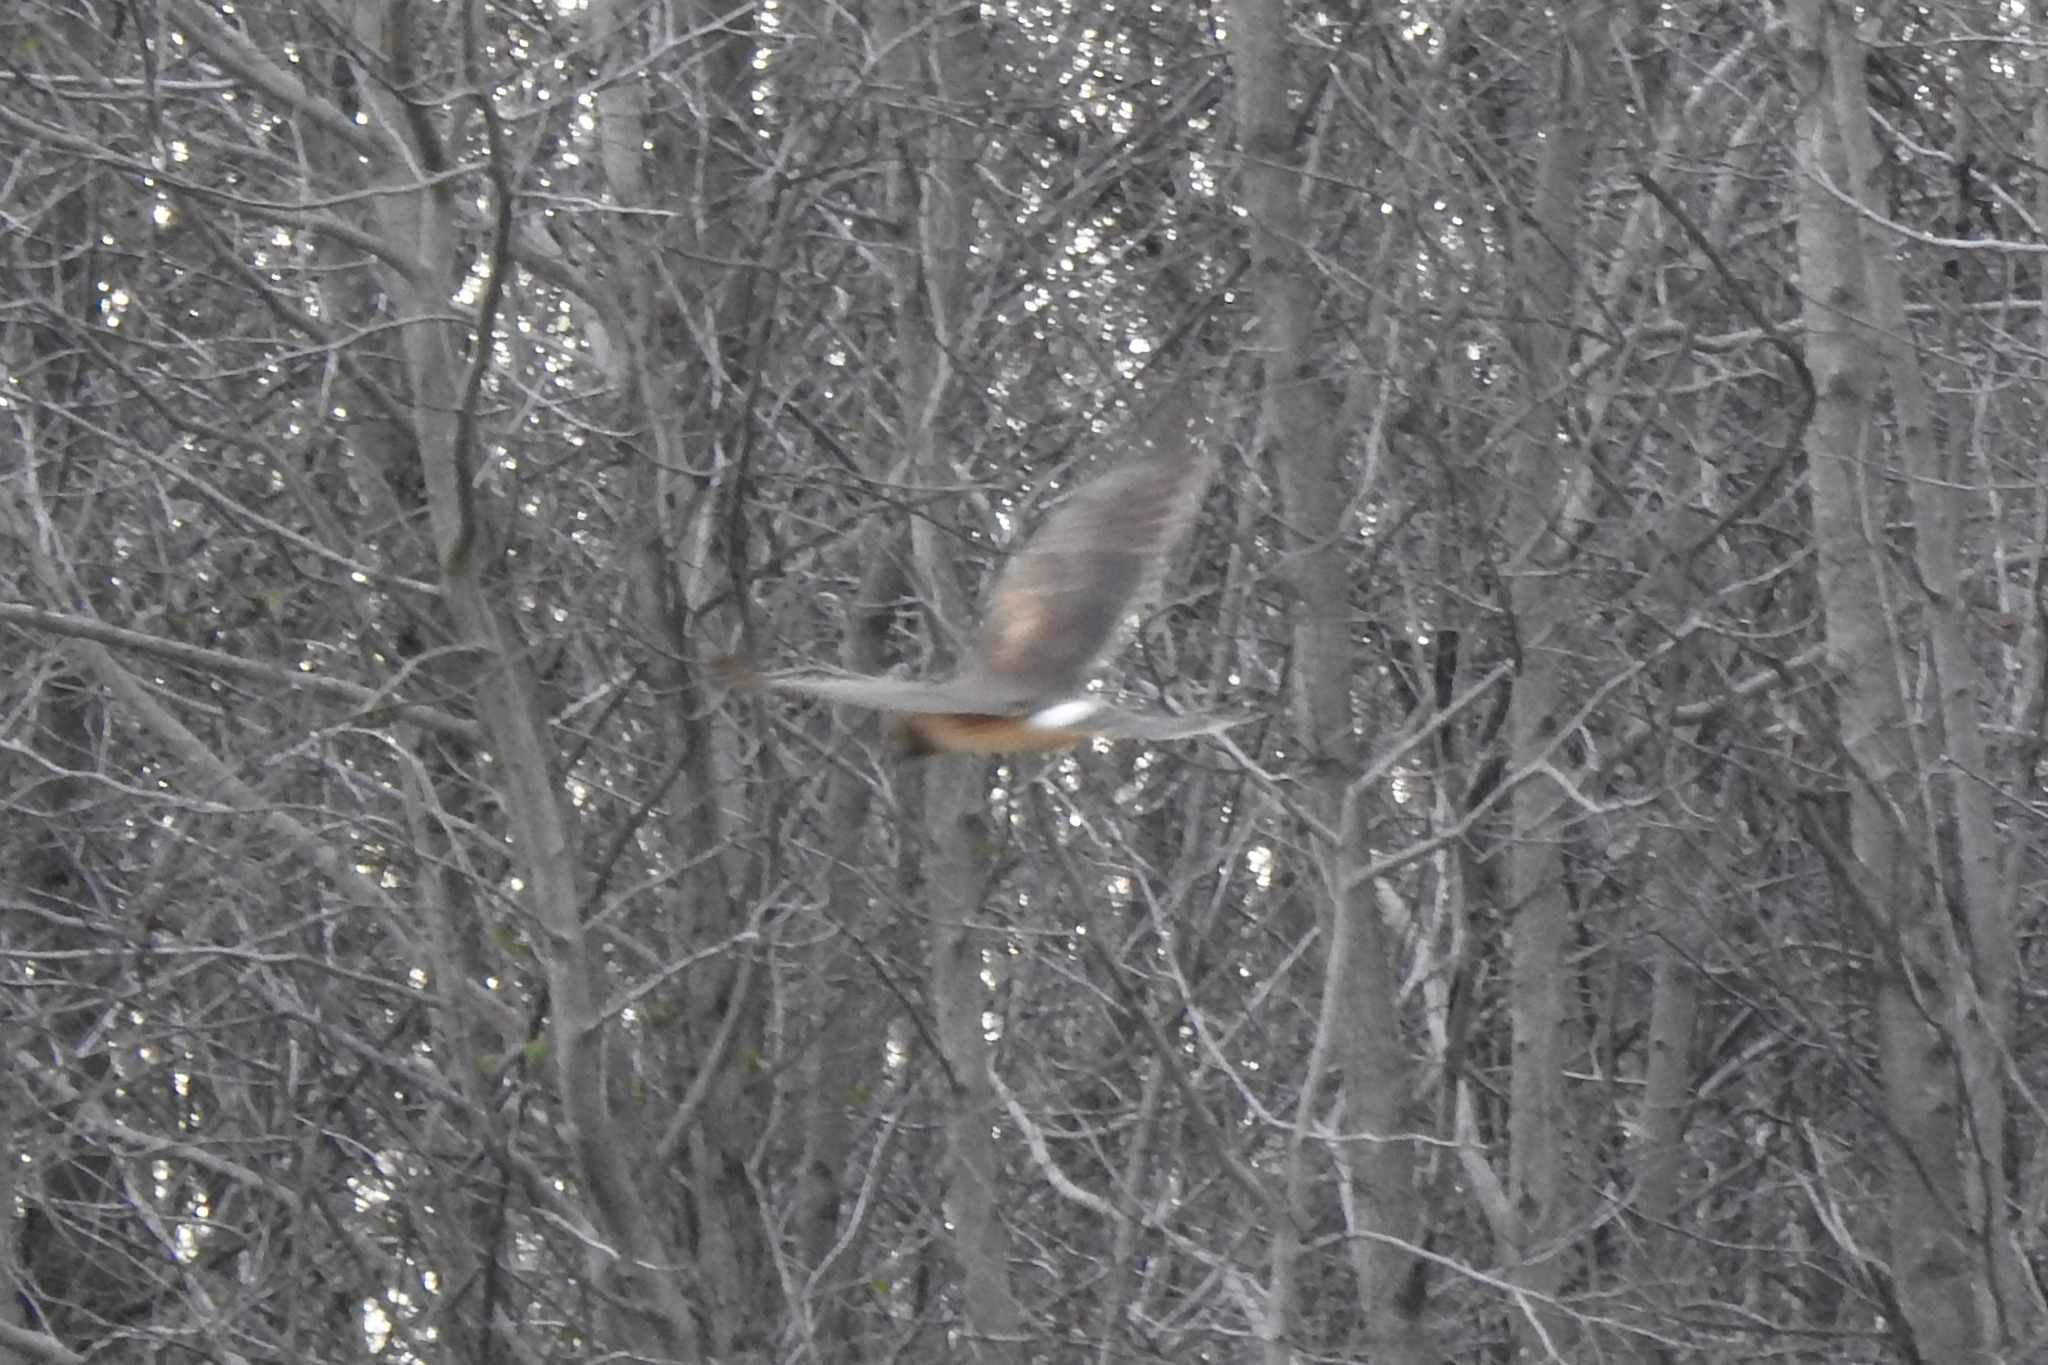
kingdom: Animalia
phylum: Chordata
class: Aves
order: Accipitriformes
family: Accipitridae
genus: Circus
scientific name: Circus cyaneus
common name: Hen harrier
